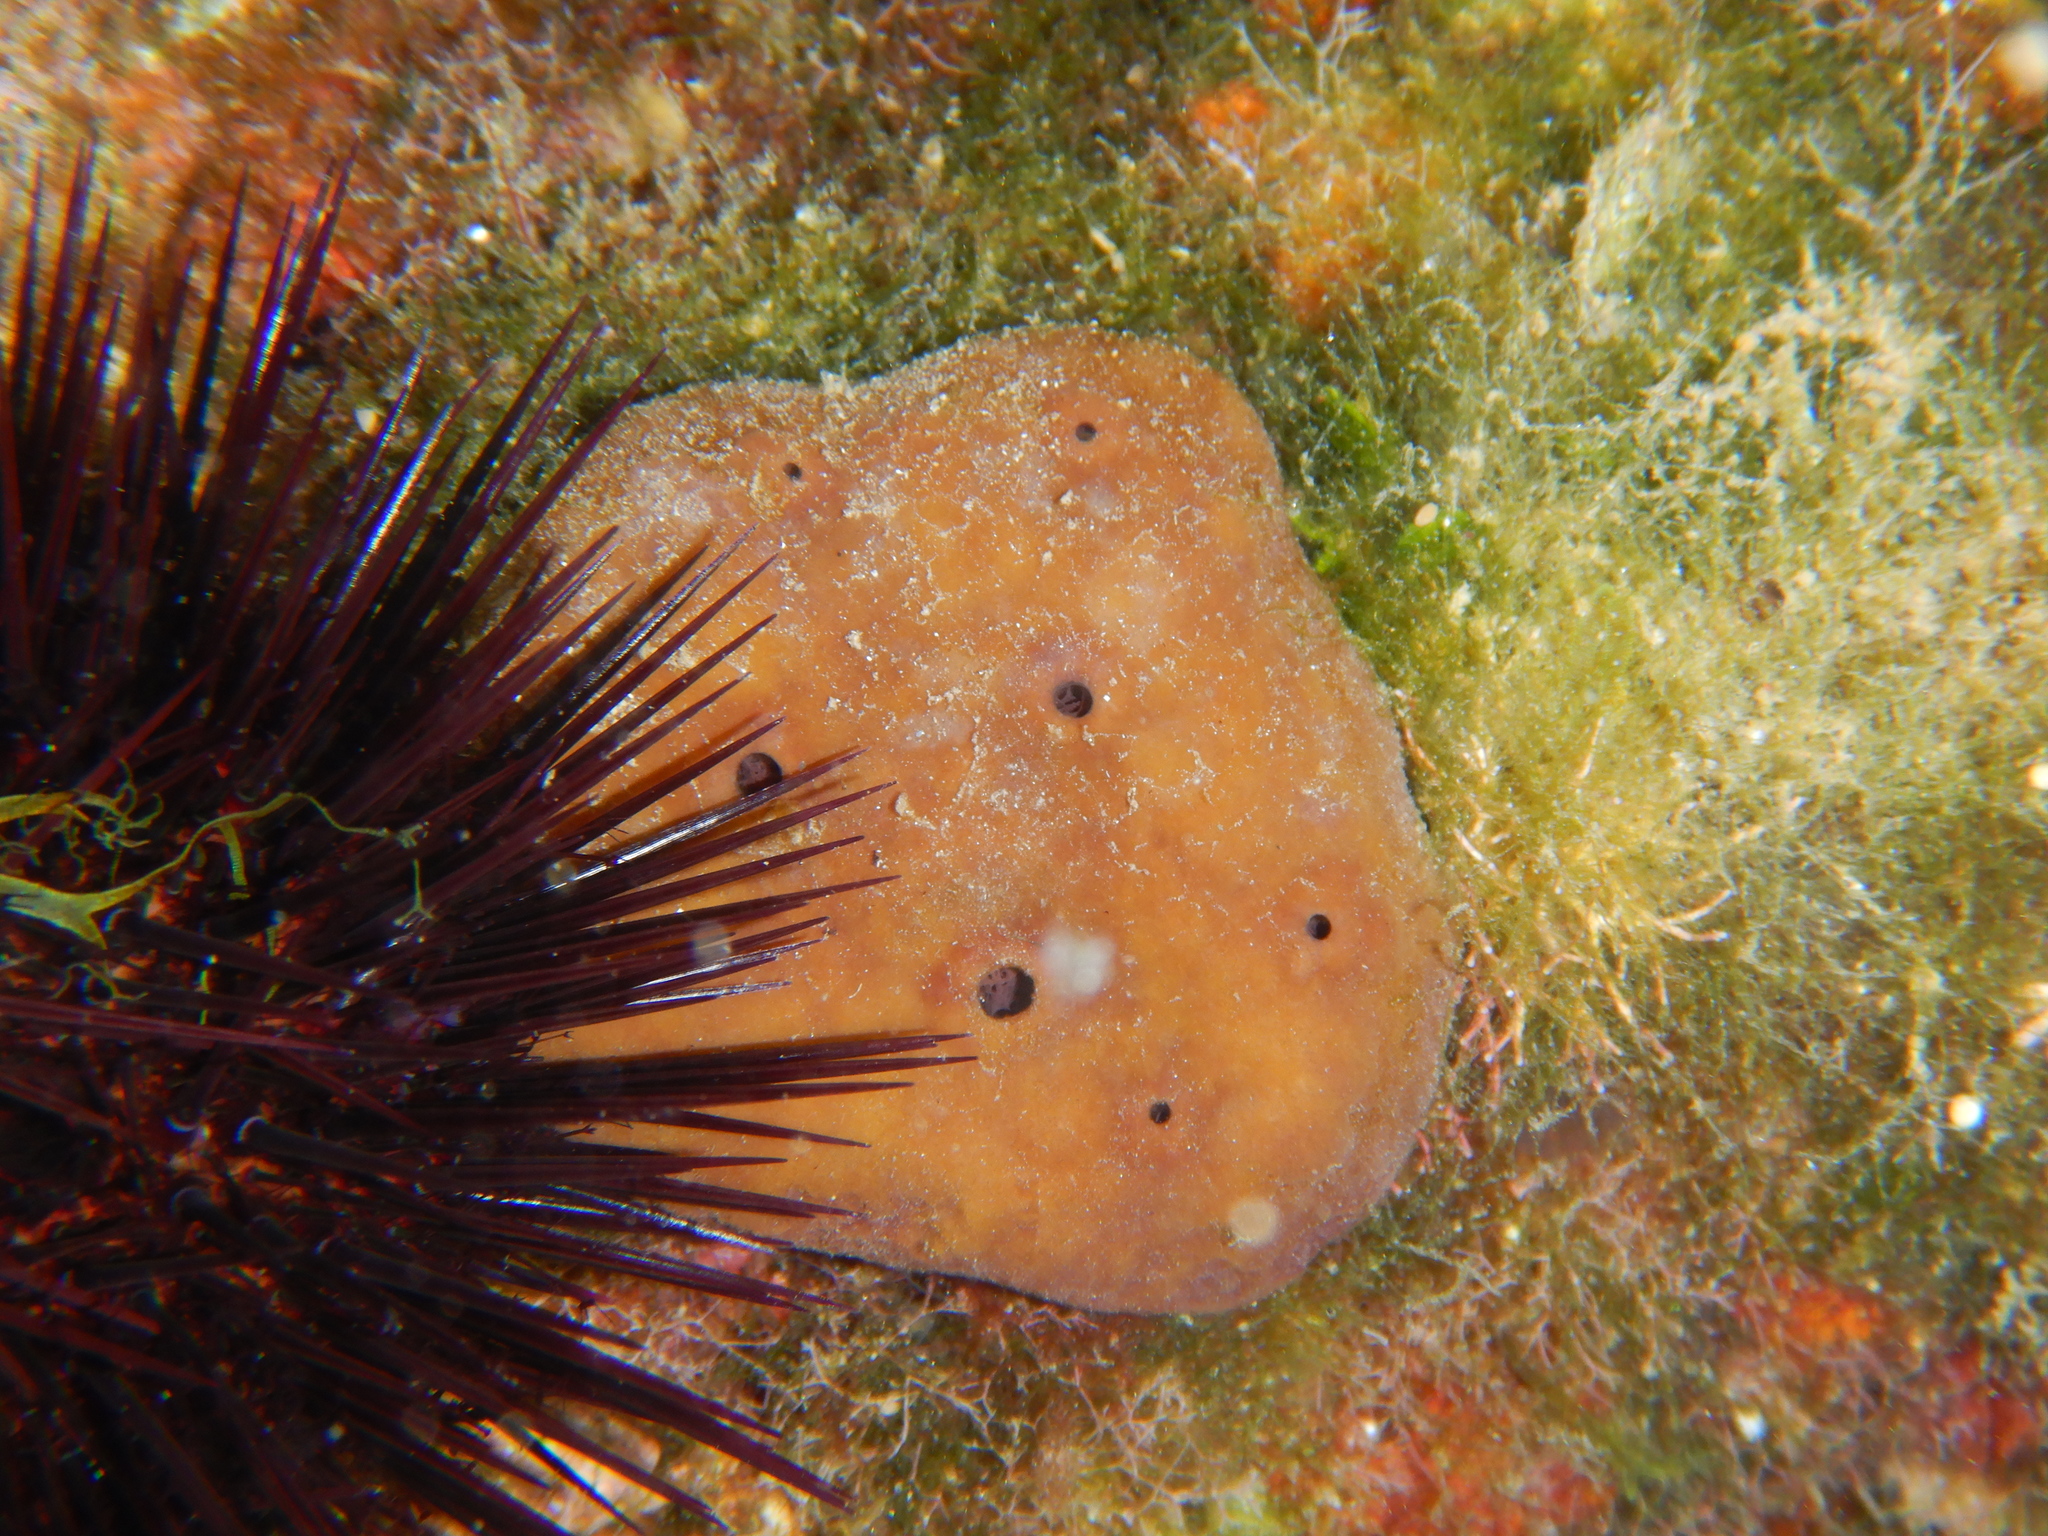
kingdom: Animalia
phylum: Porifera
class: Demospongiae
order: Haplosclerida
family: Petrosiidae
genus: Petrosia
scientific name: Petrosia ficiformis
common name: Stony sponge
